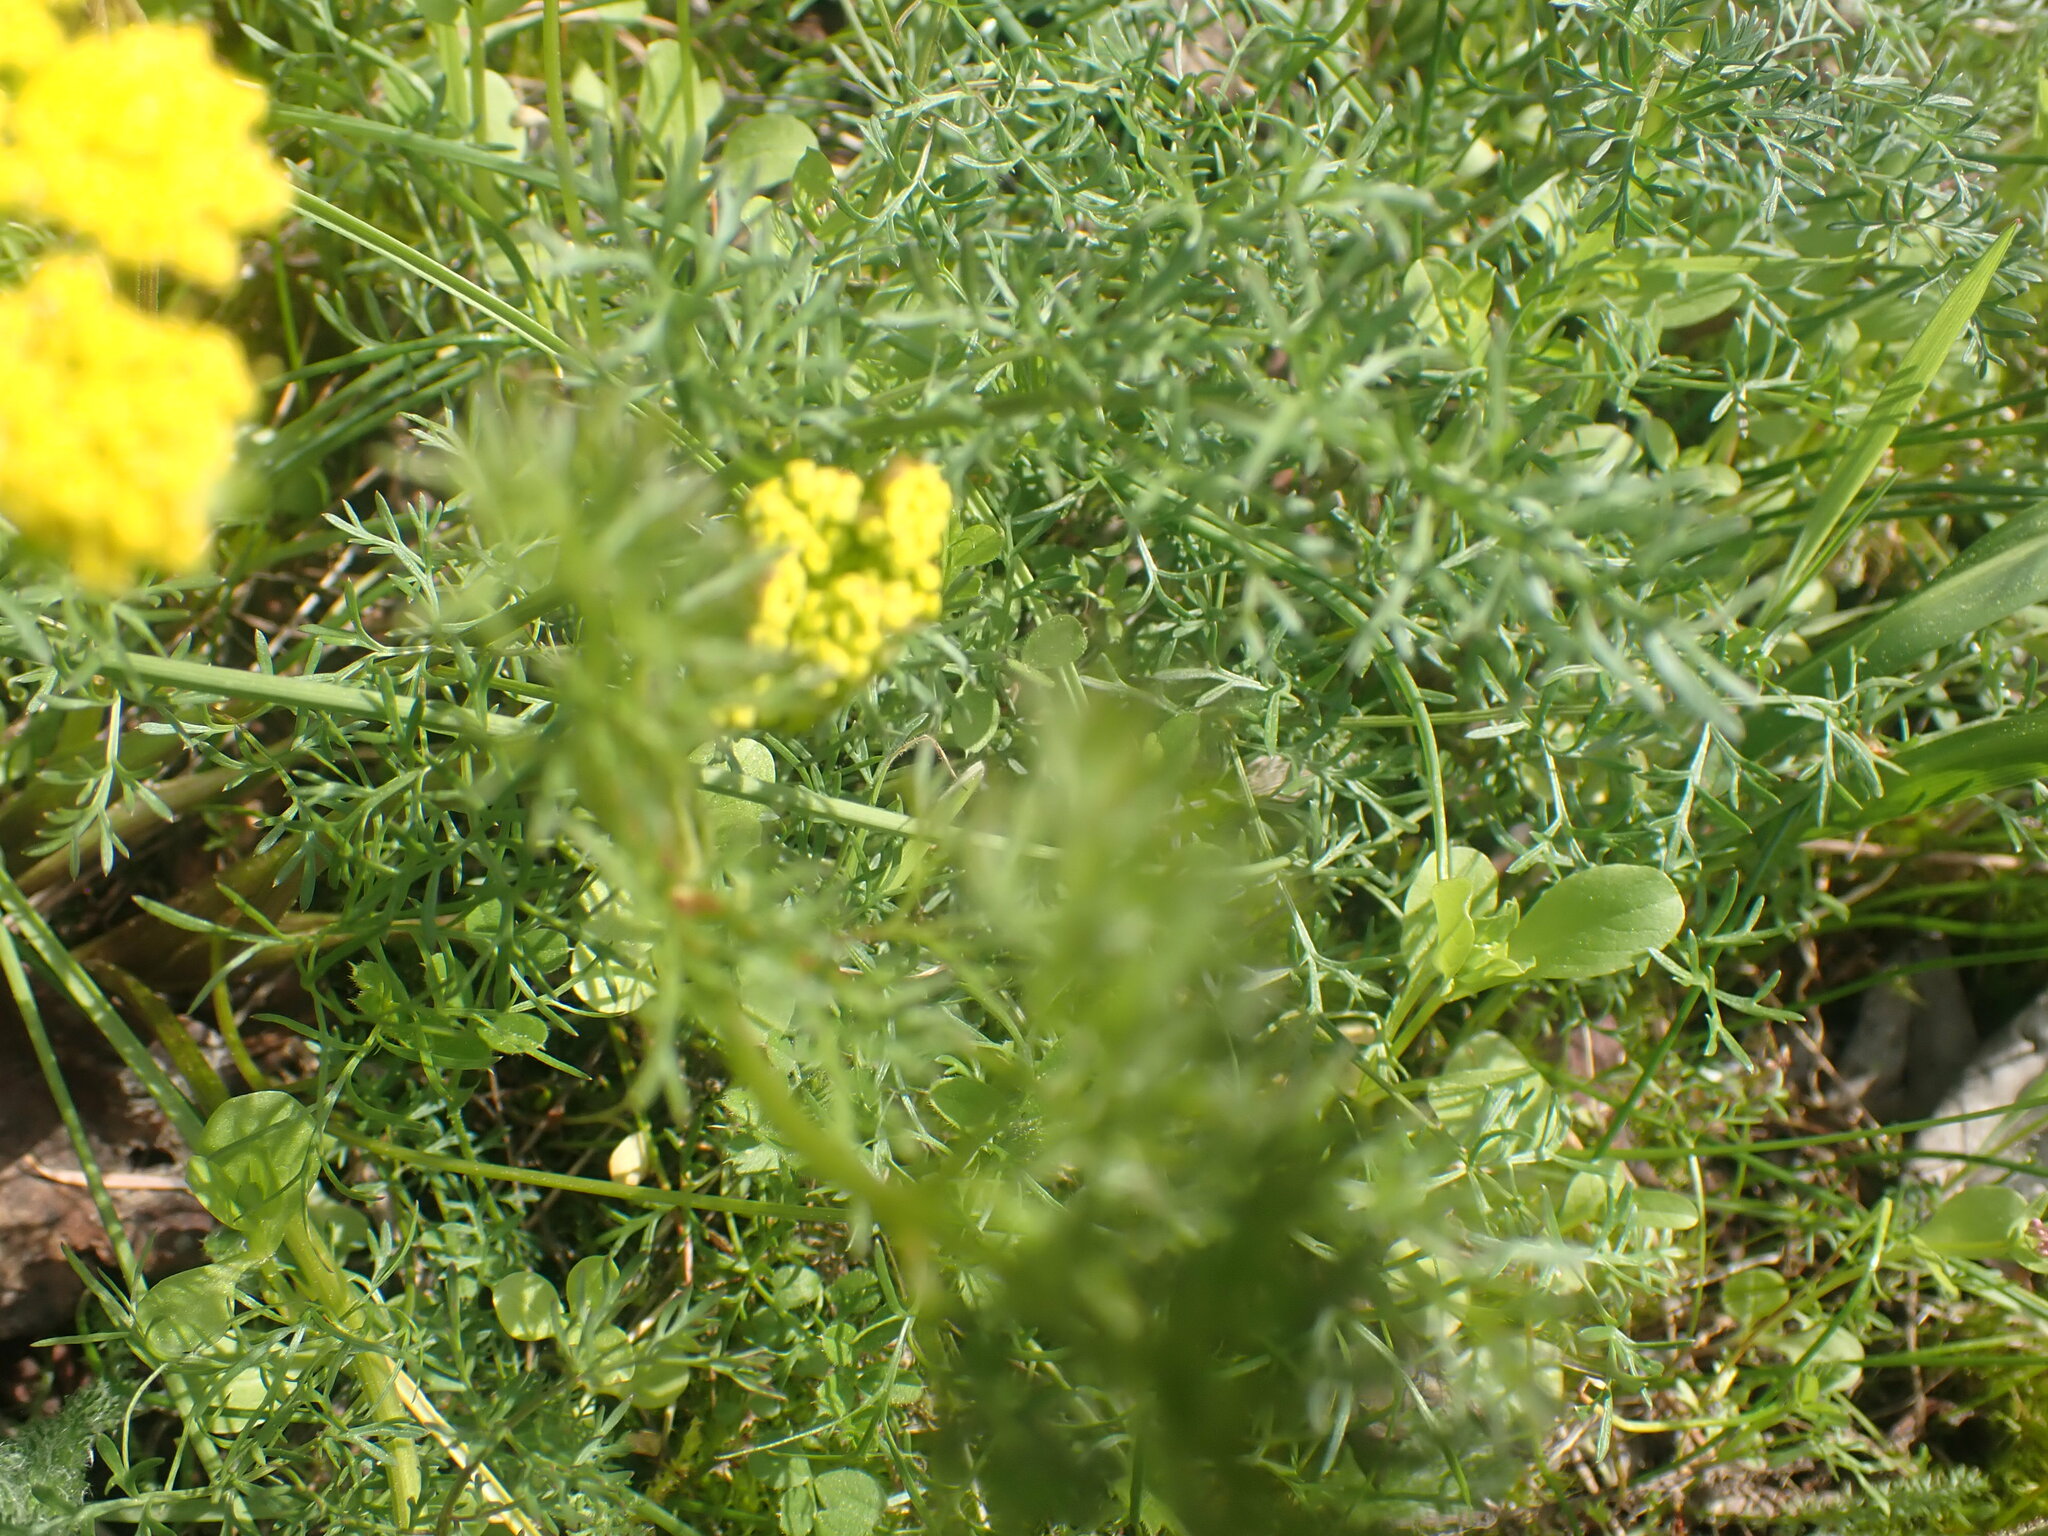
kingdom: Plantae
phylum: Tracheophyta
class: Magnoliopsida
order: Apiales
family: Apiaceae
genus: Lomatium
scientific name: Lomatium utriculatum
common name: Fine-leaf desert-parsley
